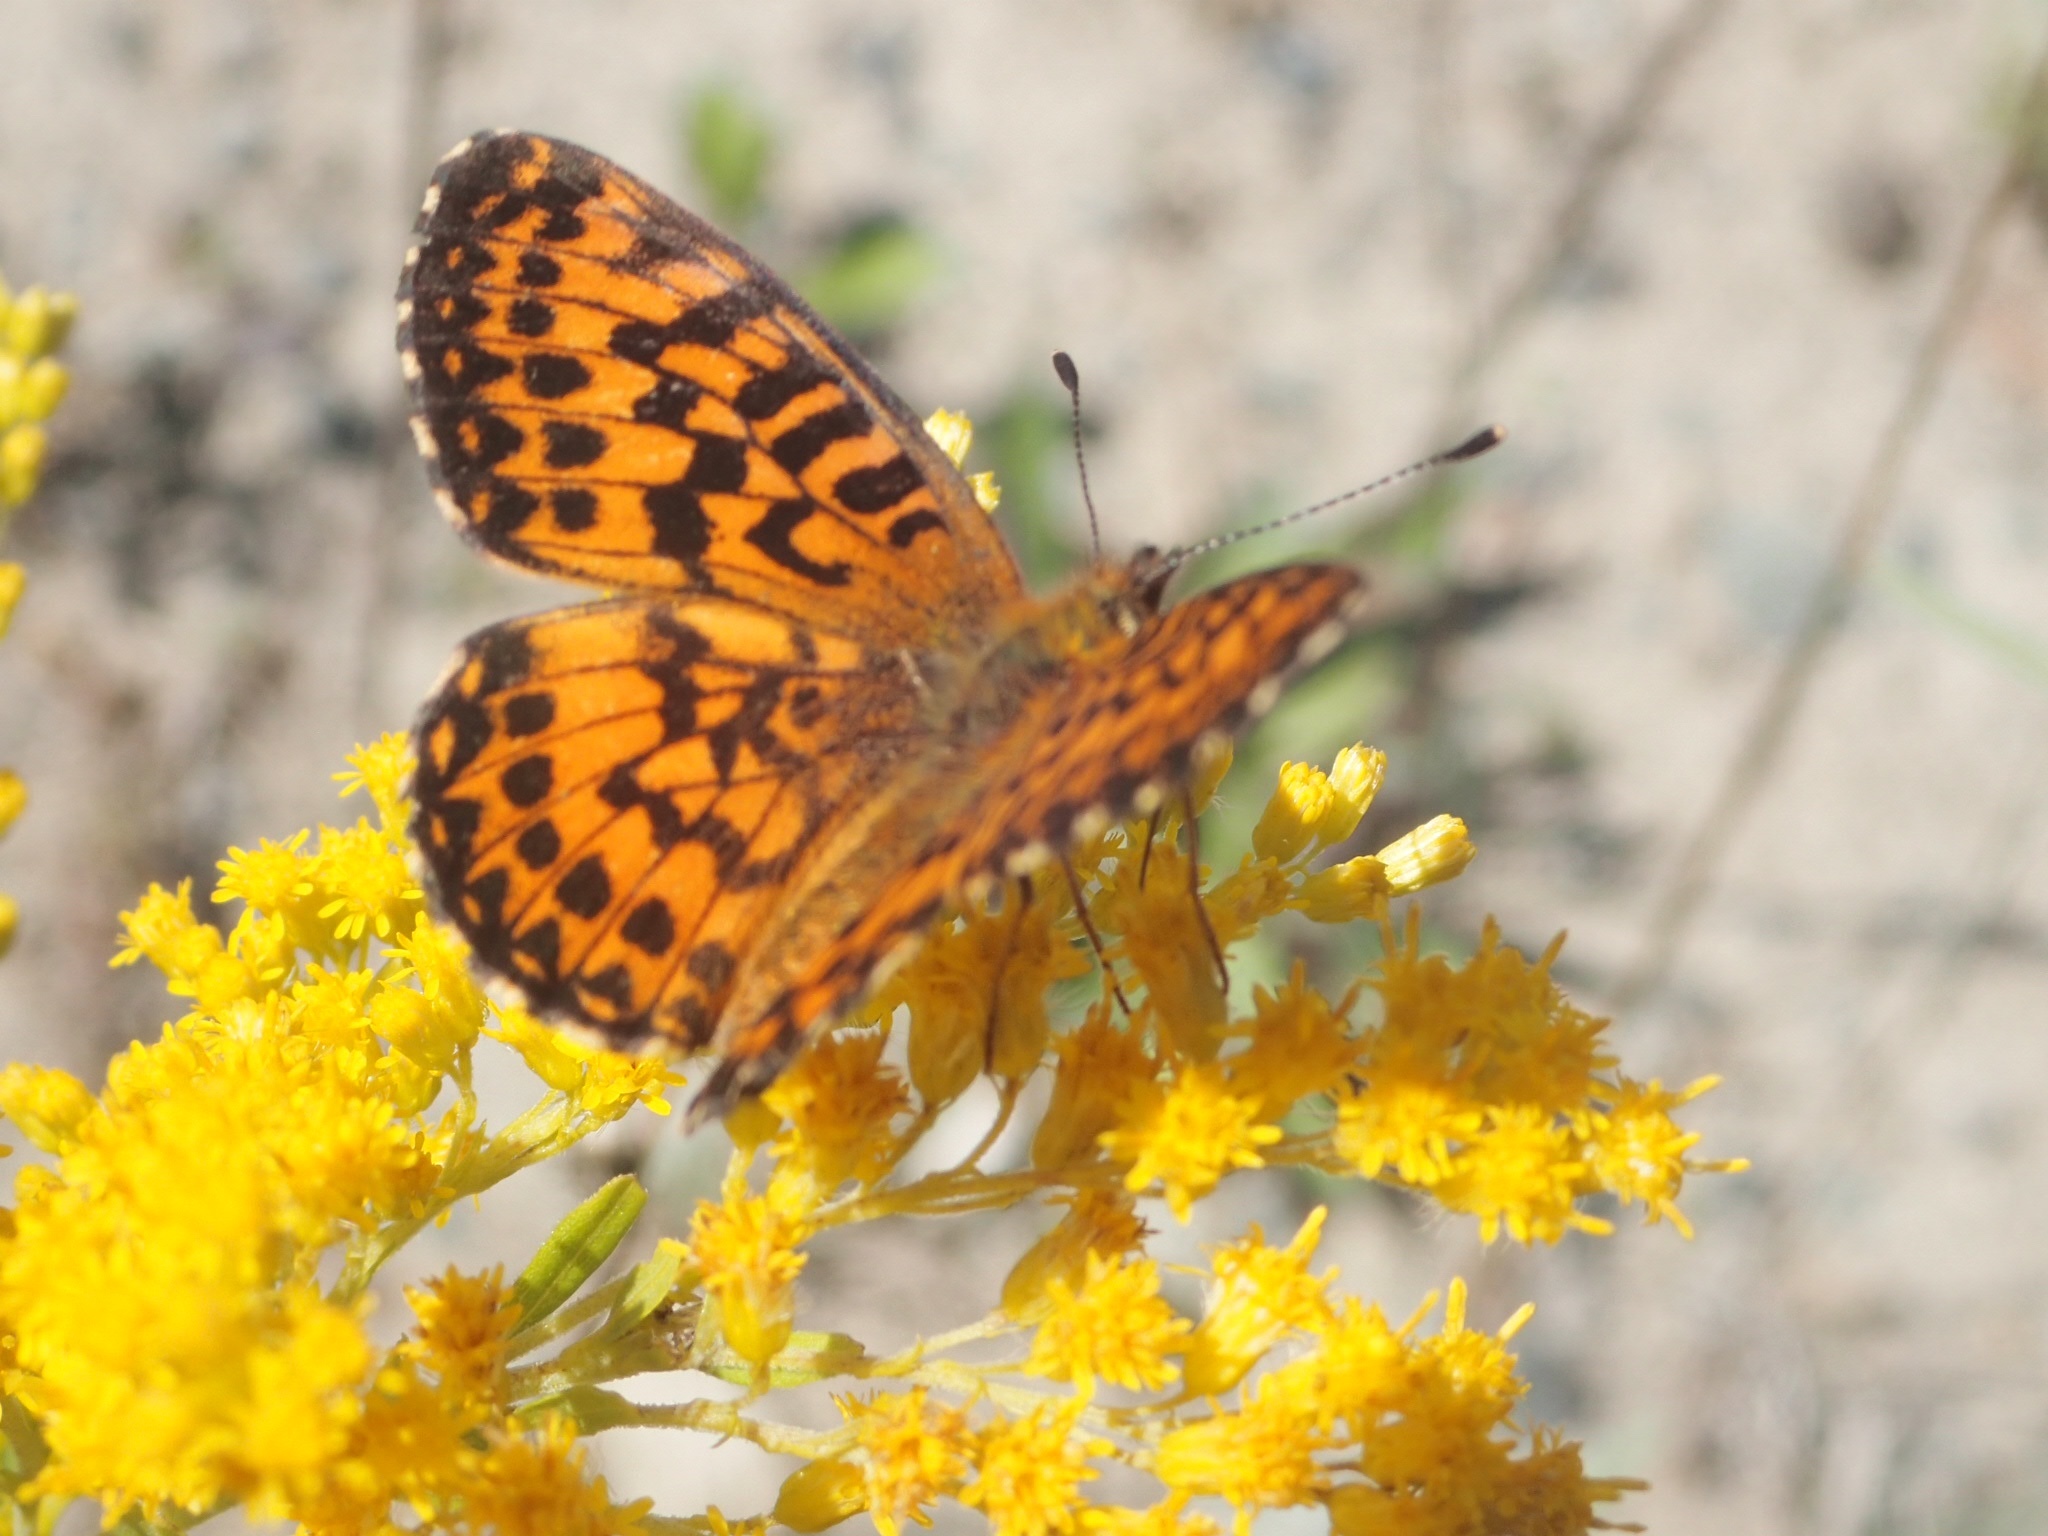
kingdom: Animalia
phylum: Arthropoda
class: Insecta
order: Lepidoptera
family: Nymphalidae
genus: Boloria
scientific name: Boloria chariclea
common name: Arctic fritillary
